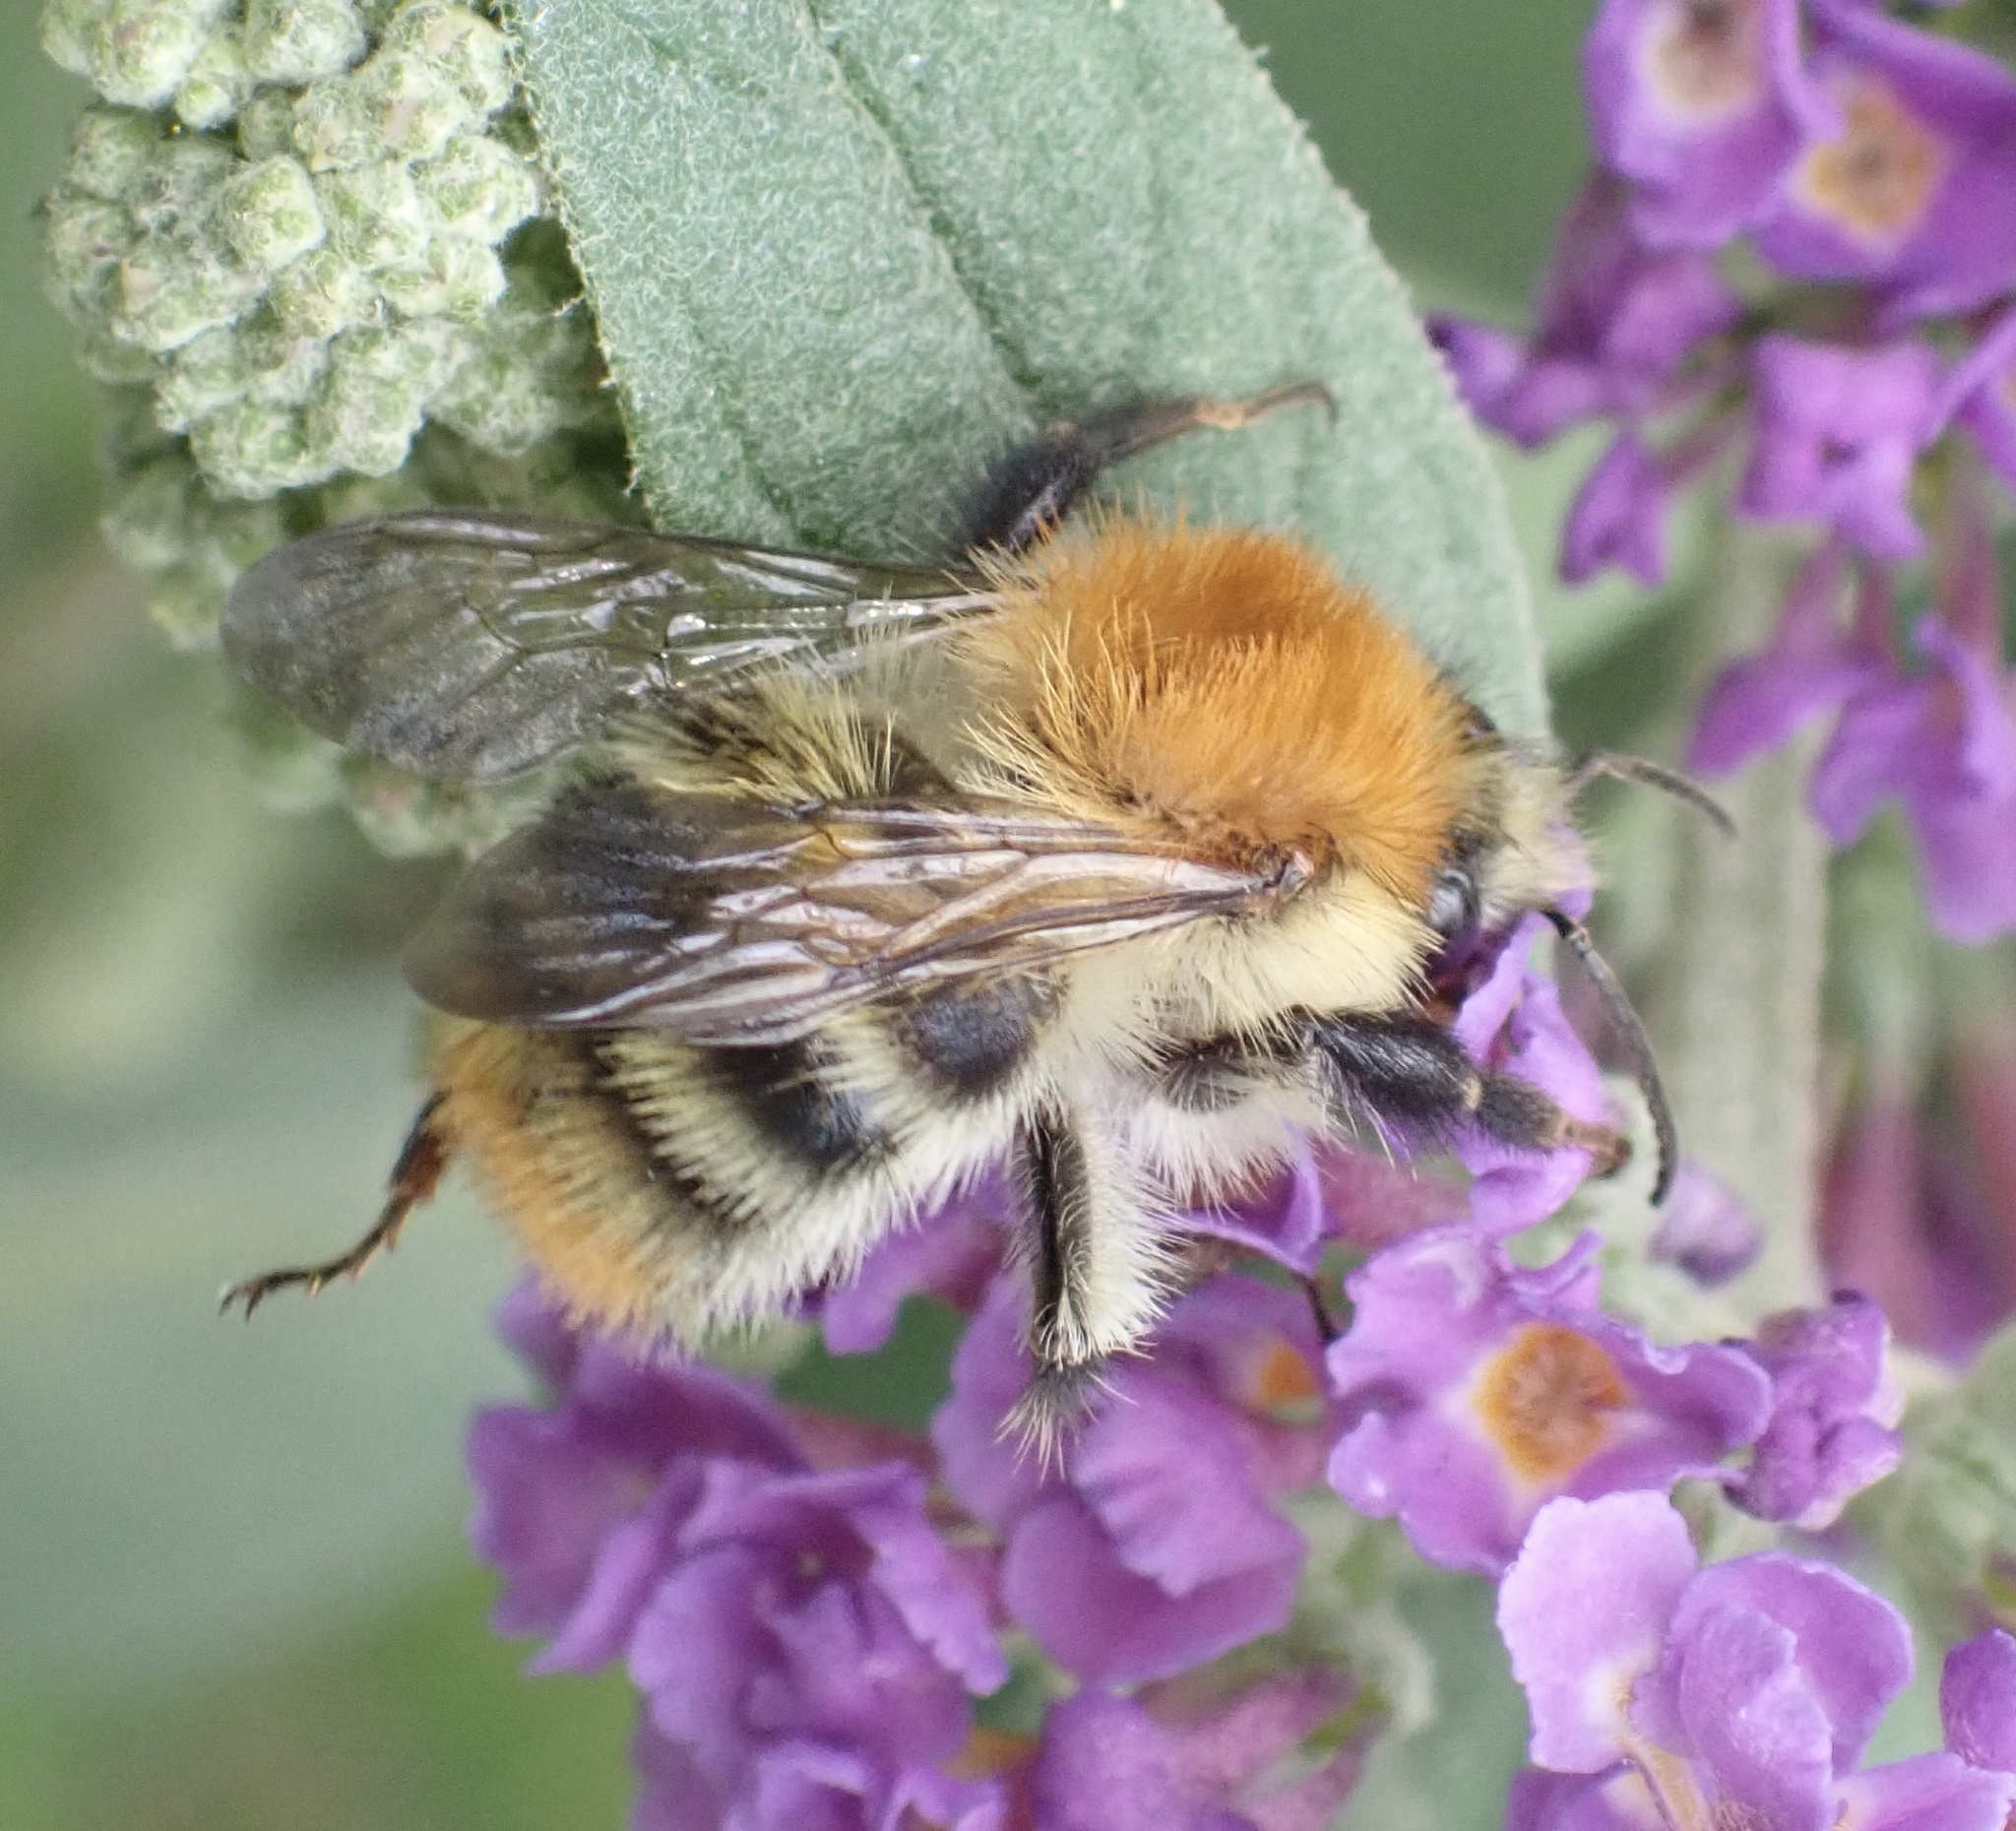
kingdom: Animalia
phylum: Arthropoda
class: Insecta
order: Hymenoptera
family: Apidae
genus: Bombus
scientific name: Bombus pascuorum
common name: Common carder bee
